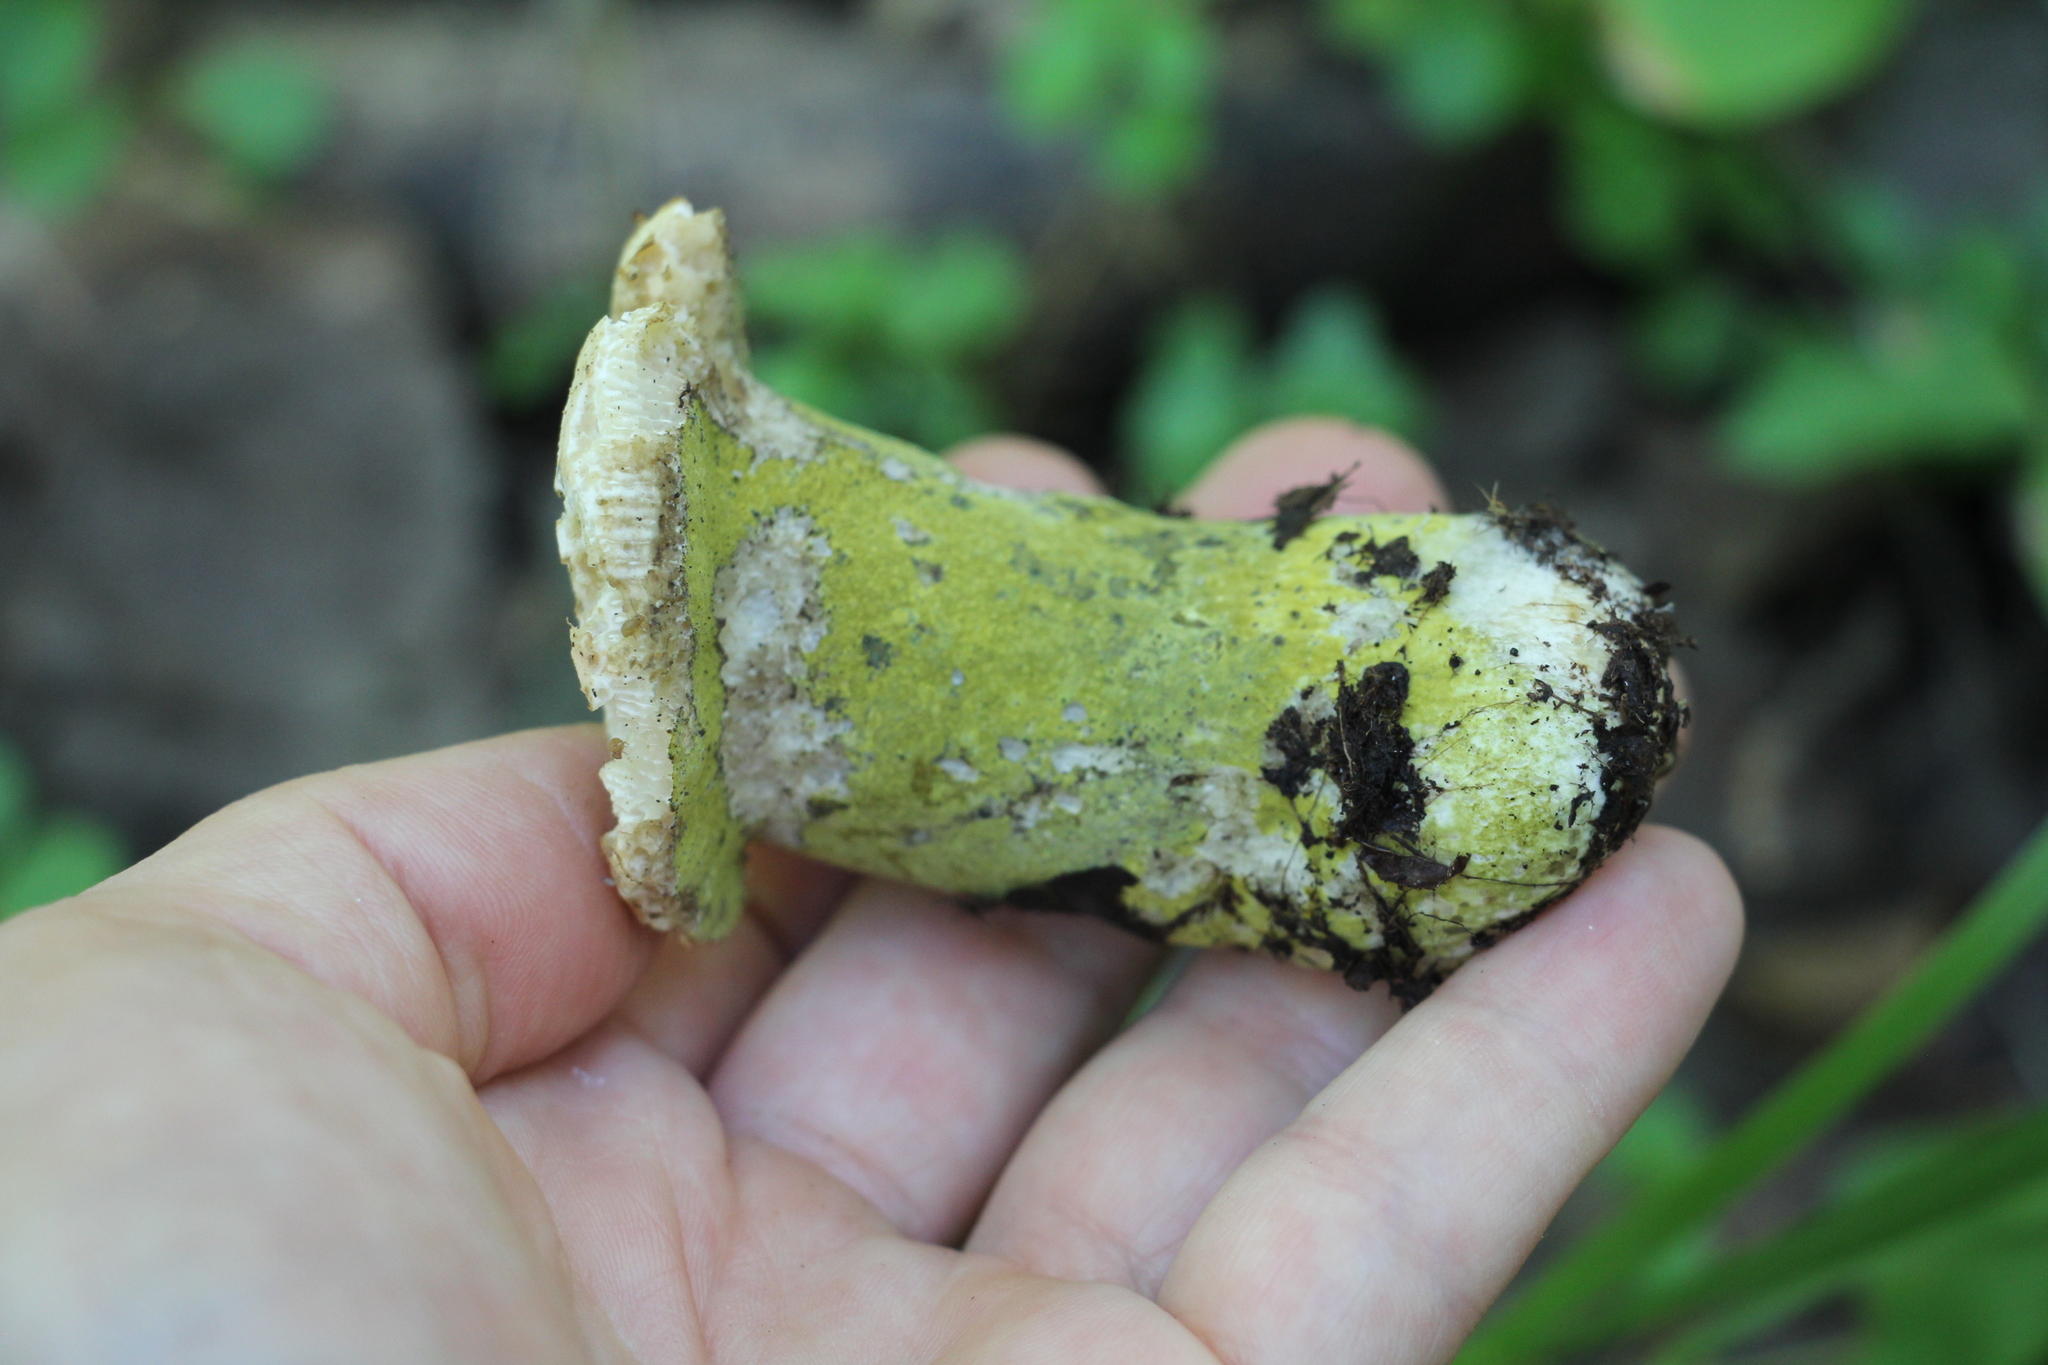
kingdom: Fungi
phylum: Ascomycota
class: Sordariomycetes
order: Hypocreales
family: Hypocreaceae
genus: Hypomyces
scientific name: Hypomyces luteovirens
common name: Yellow-green russula mold
